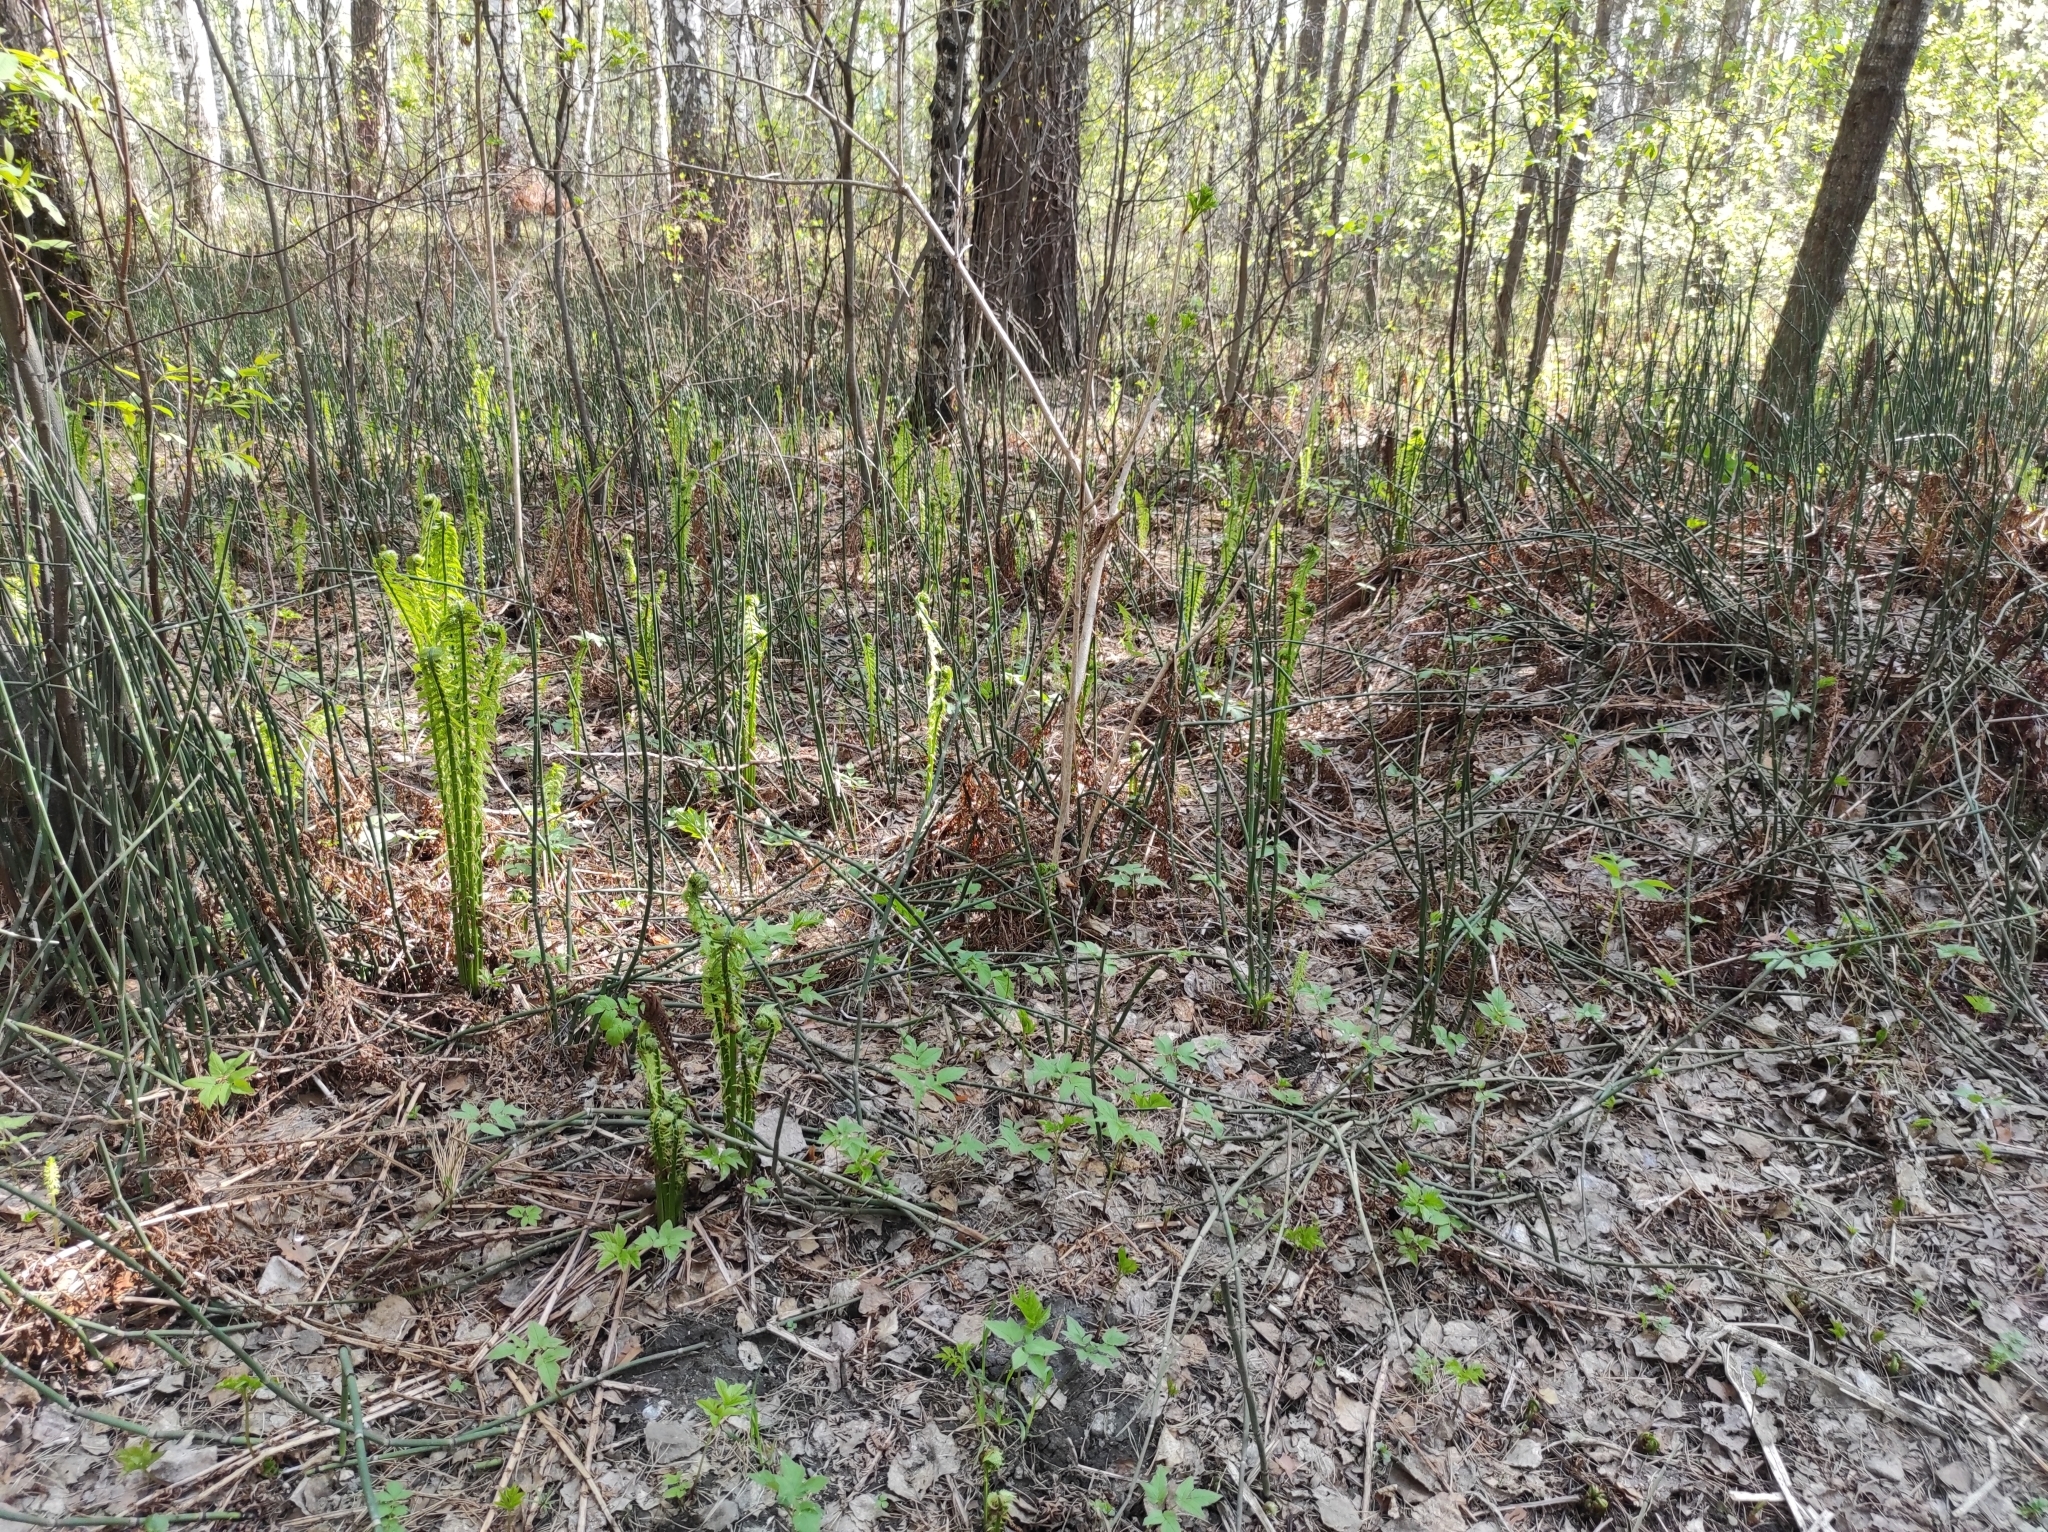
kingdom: Plantae
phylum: Tracheophyta
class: Polypodiopsida
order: Polypodiales
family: Onocleaceae
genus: Matteuccia
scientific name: Matteuccia struthiopteris
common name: Ostrich fern
